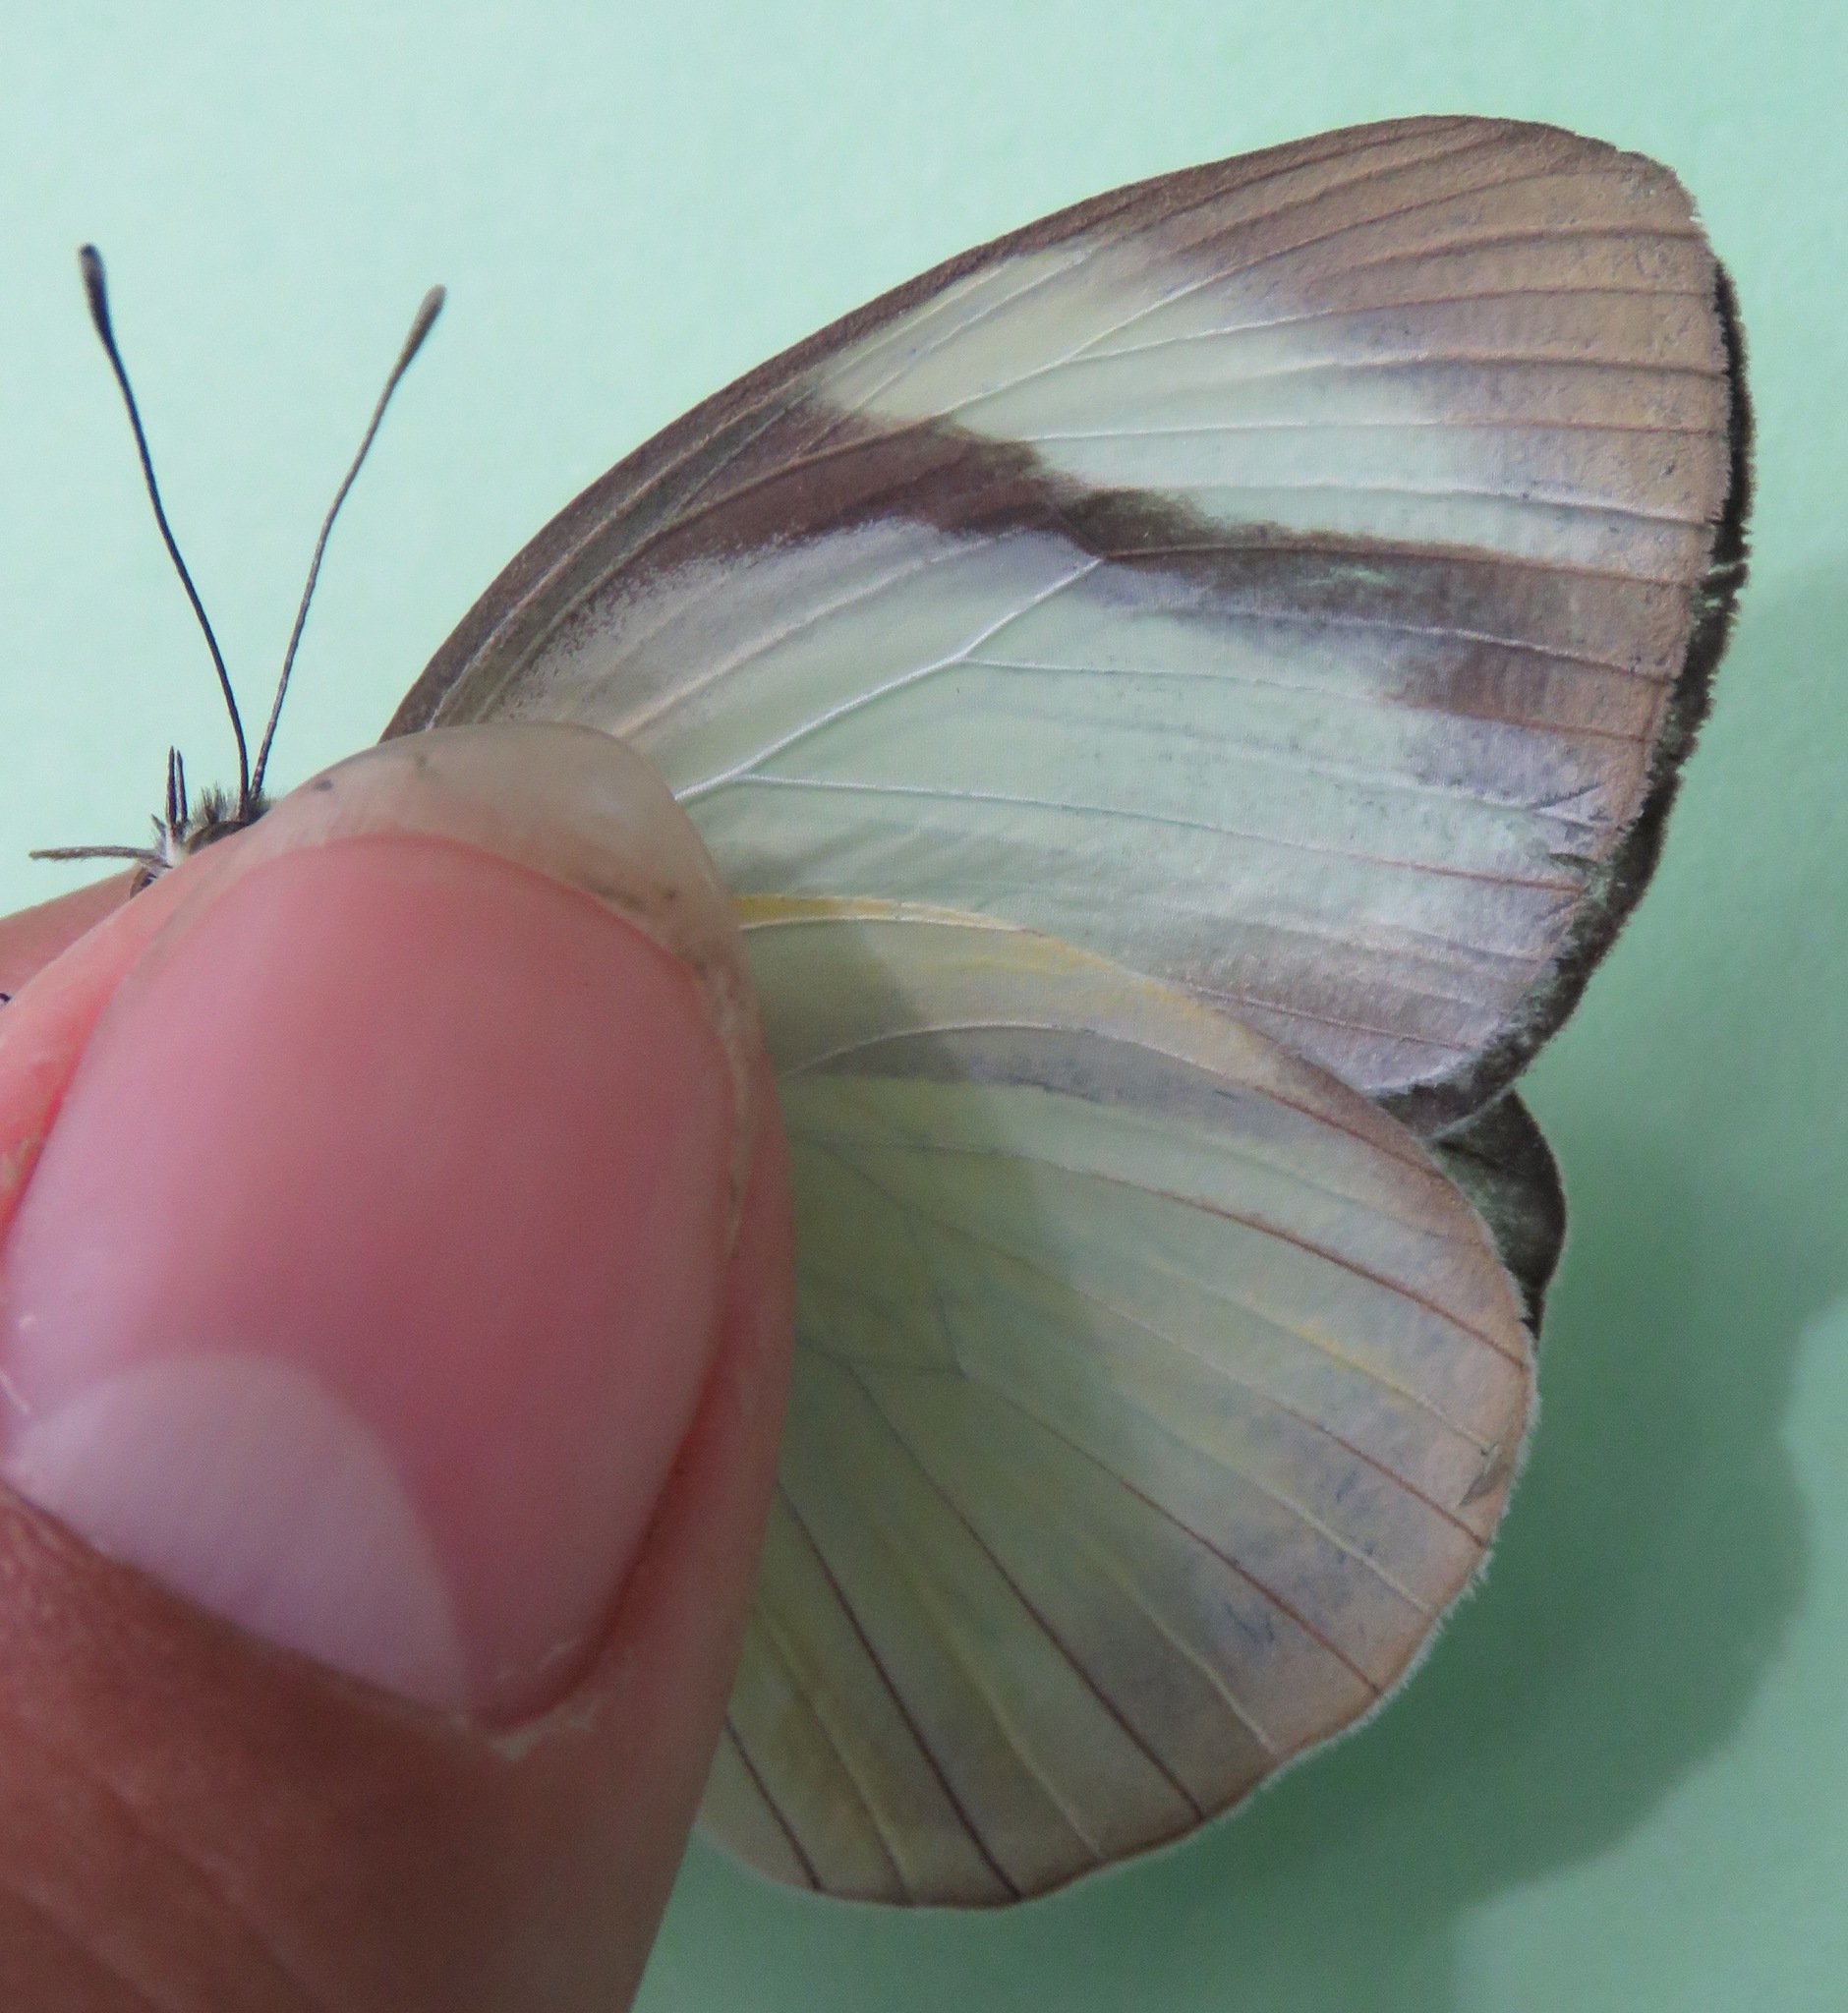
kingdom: Animalia
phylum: Arthropoda
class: Insecta
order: Lepidoptera
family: Pieridae
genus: Itaballia
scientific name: Itaballia demophile
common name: Cross-barred white
